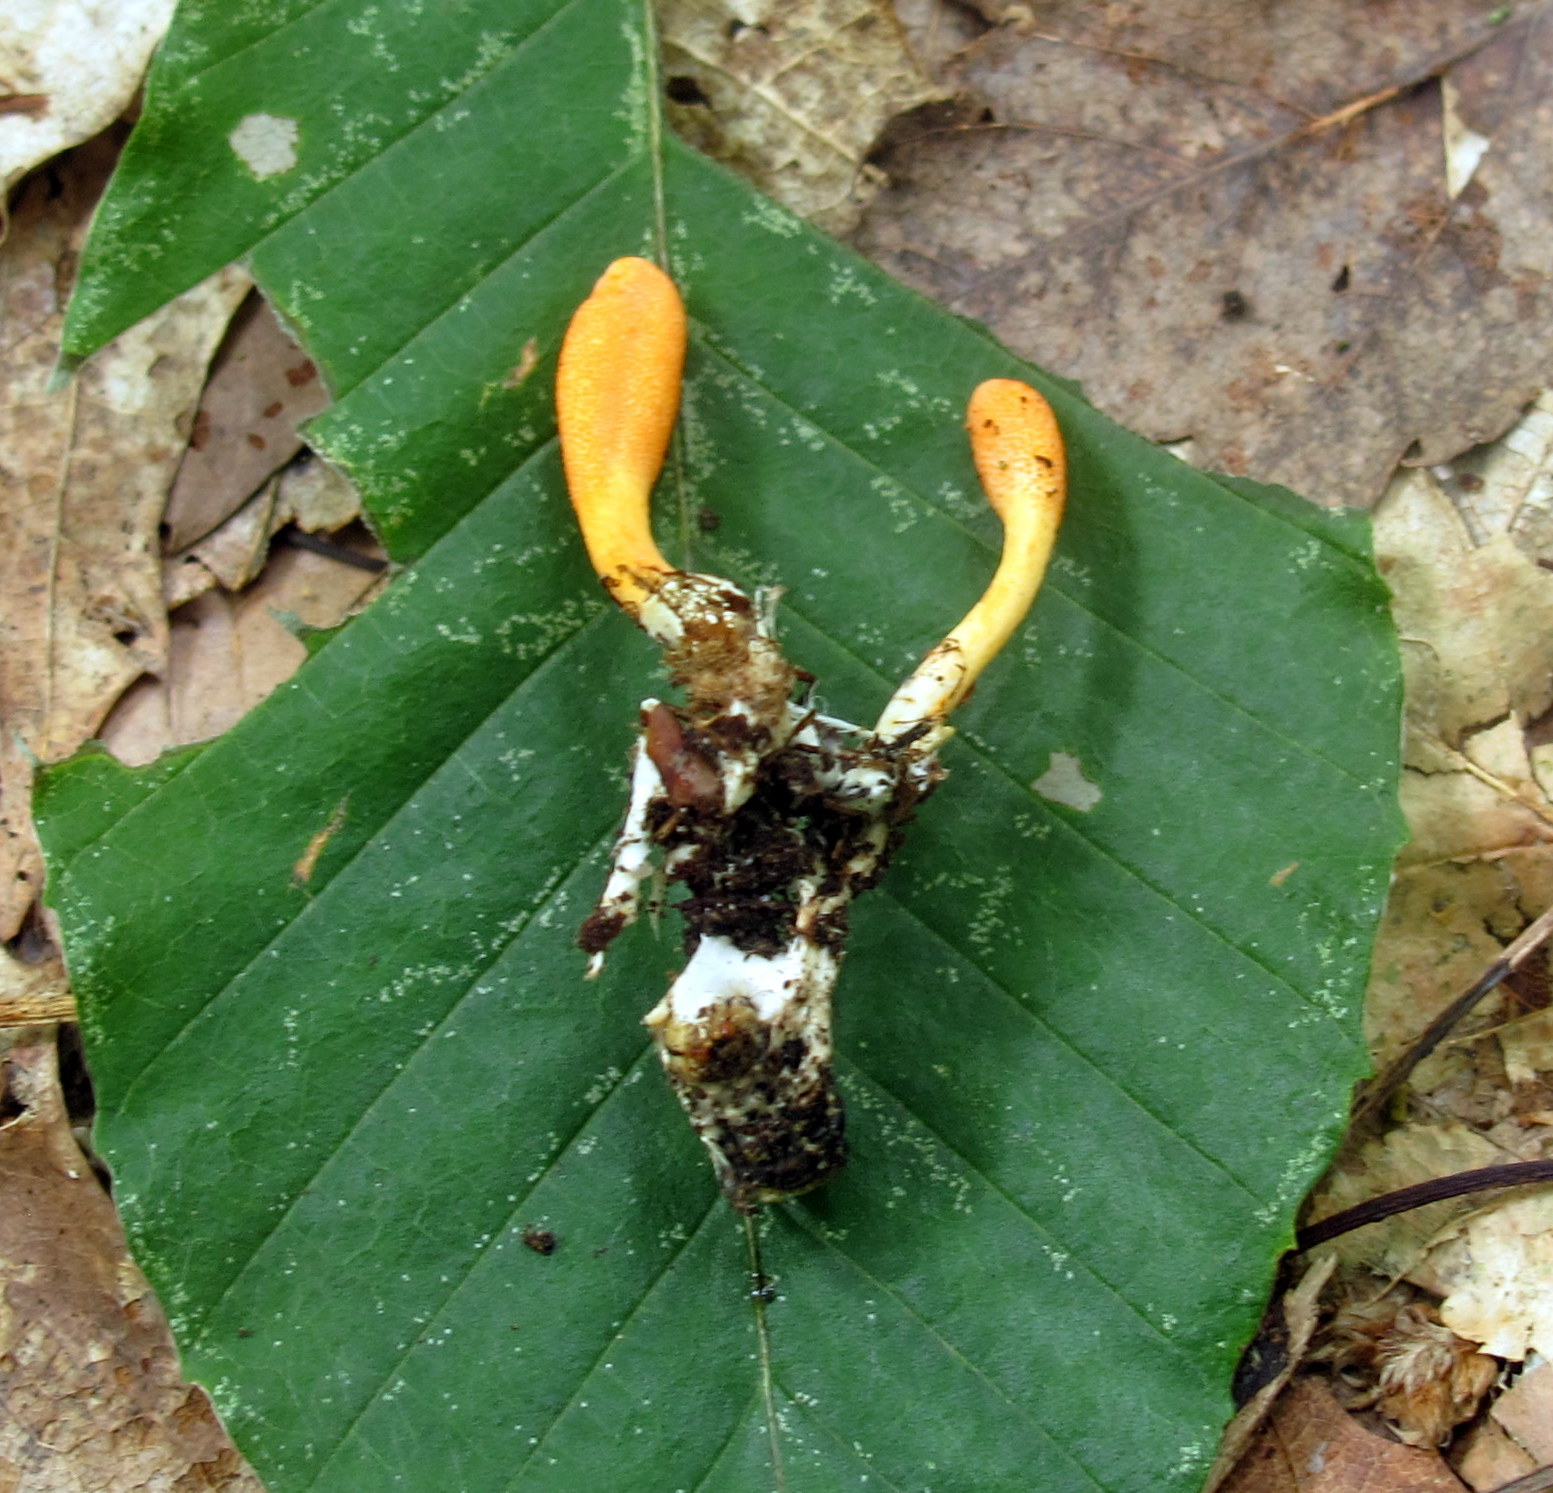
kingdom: Fungi
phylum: Ascomycota
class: Sordariomycetes
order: Hypocreales
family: Cordycipitaceae
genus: Cordyceps
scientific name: Cordyceps militaris
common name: Scarlet caterpillar fungus
